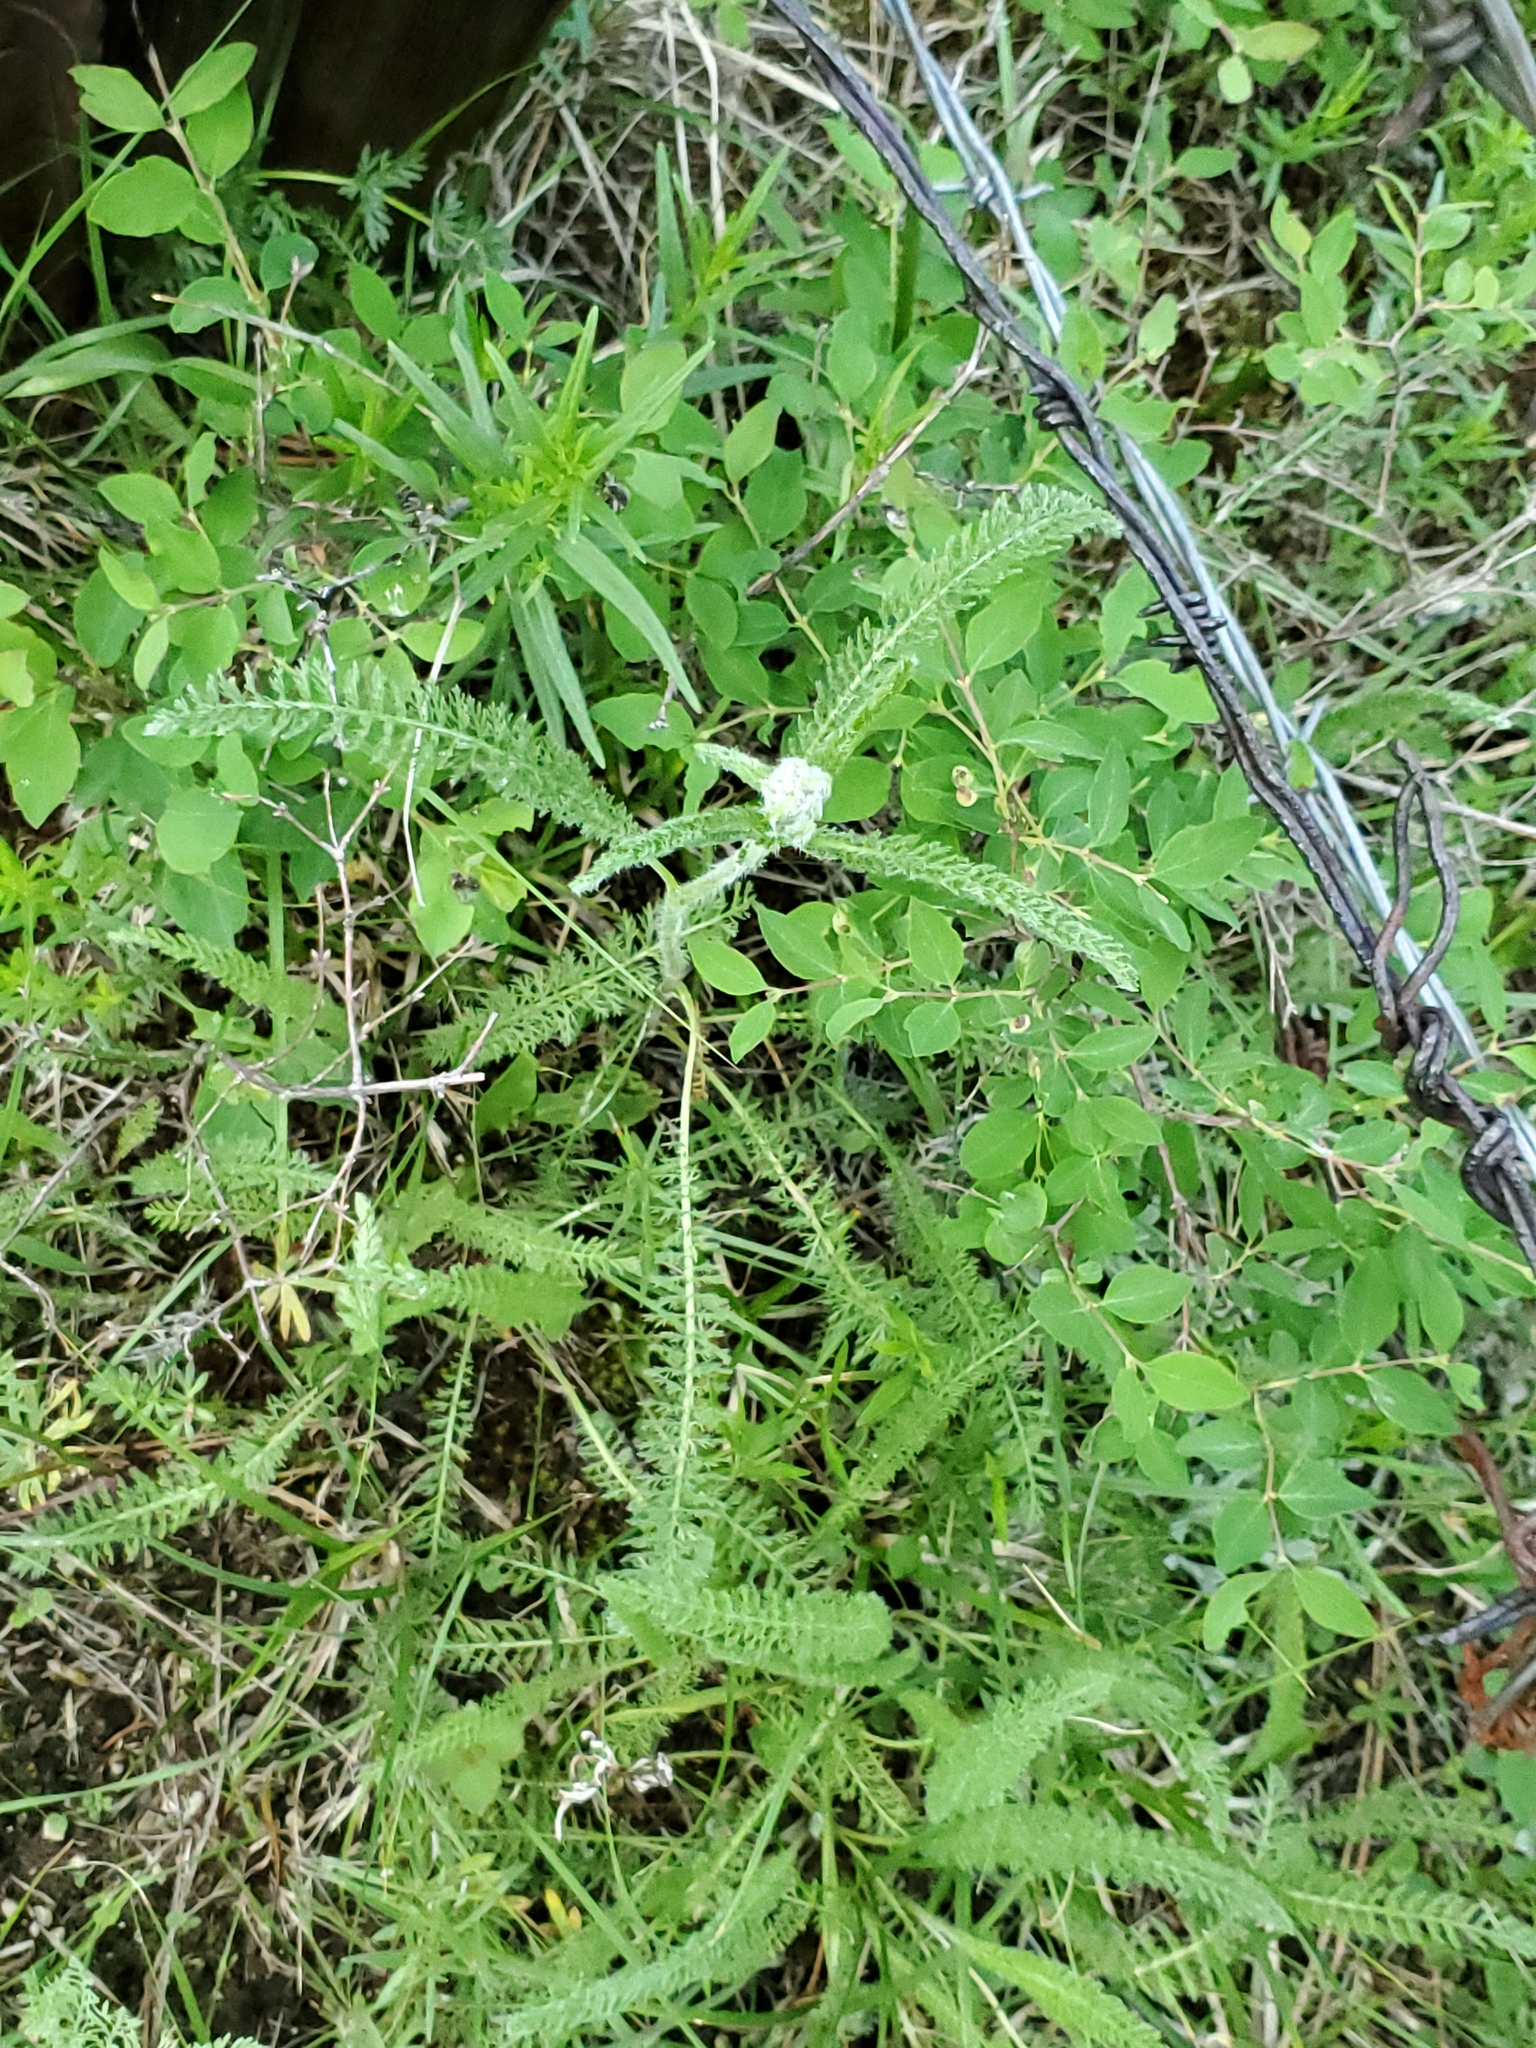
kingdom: Plantae
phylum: Tracheophyta
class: Magnoliopsida
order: Asterales
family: Asteraceae
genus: Achillea
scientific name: Achillea millefolium
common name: Yarrow
